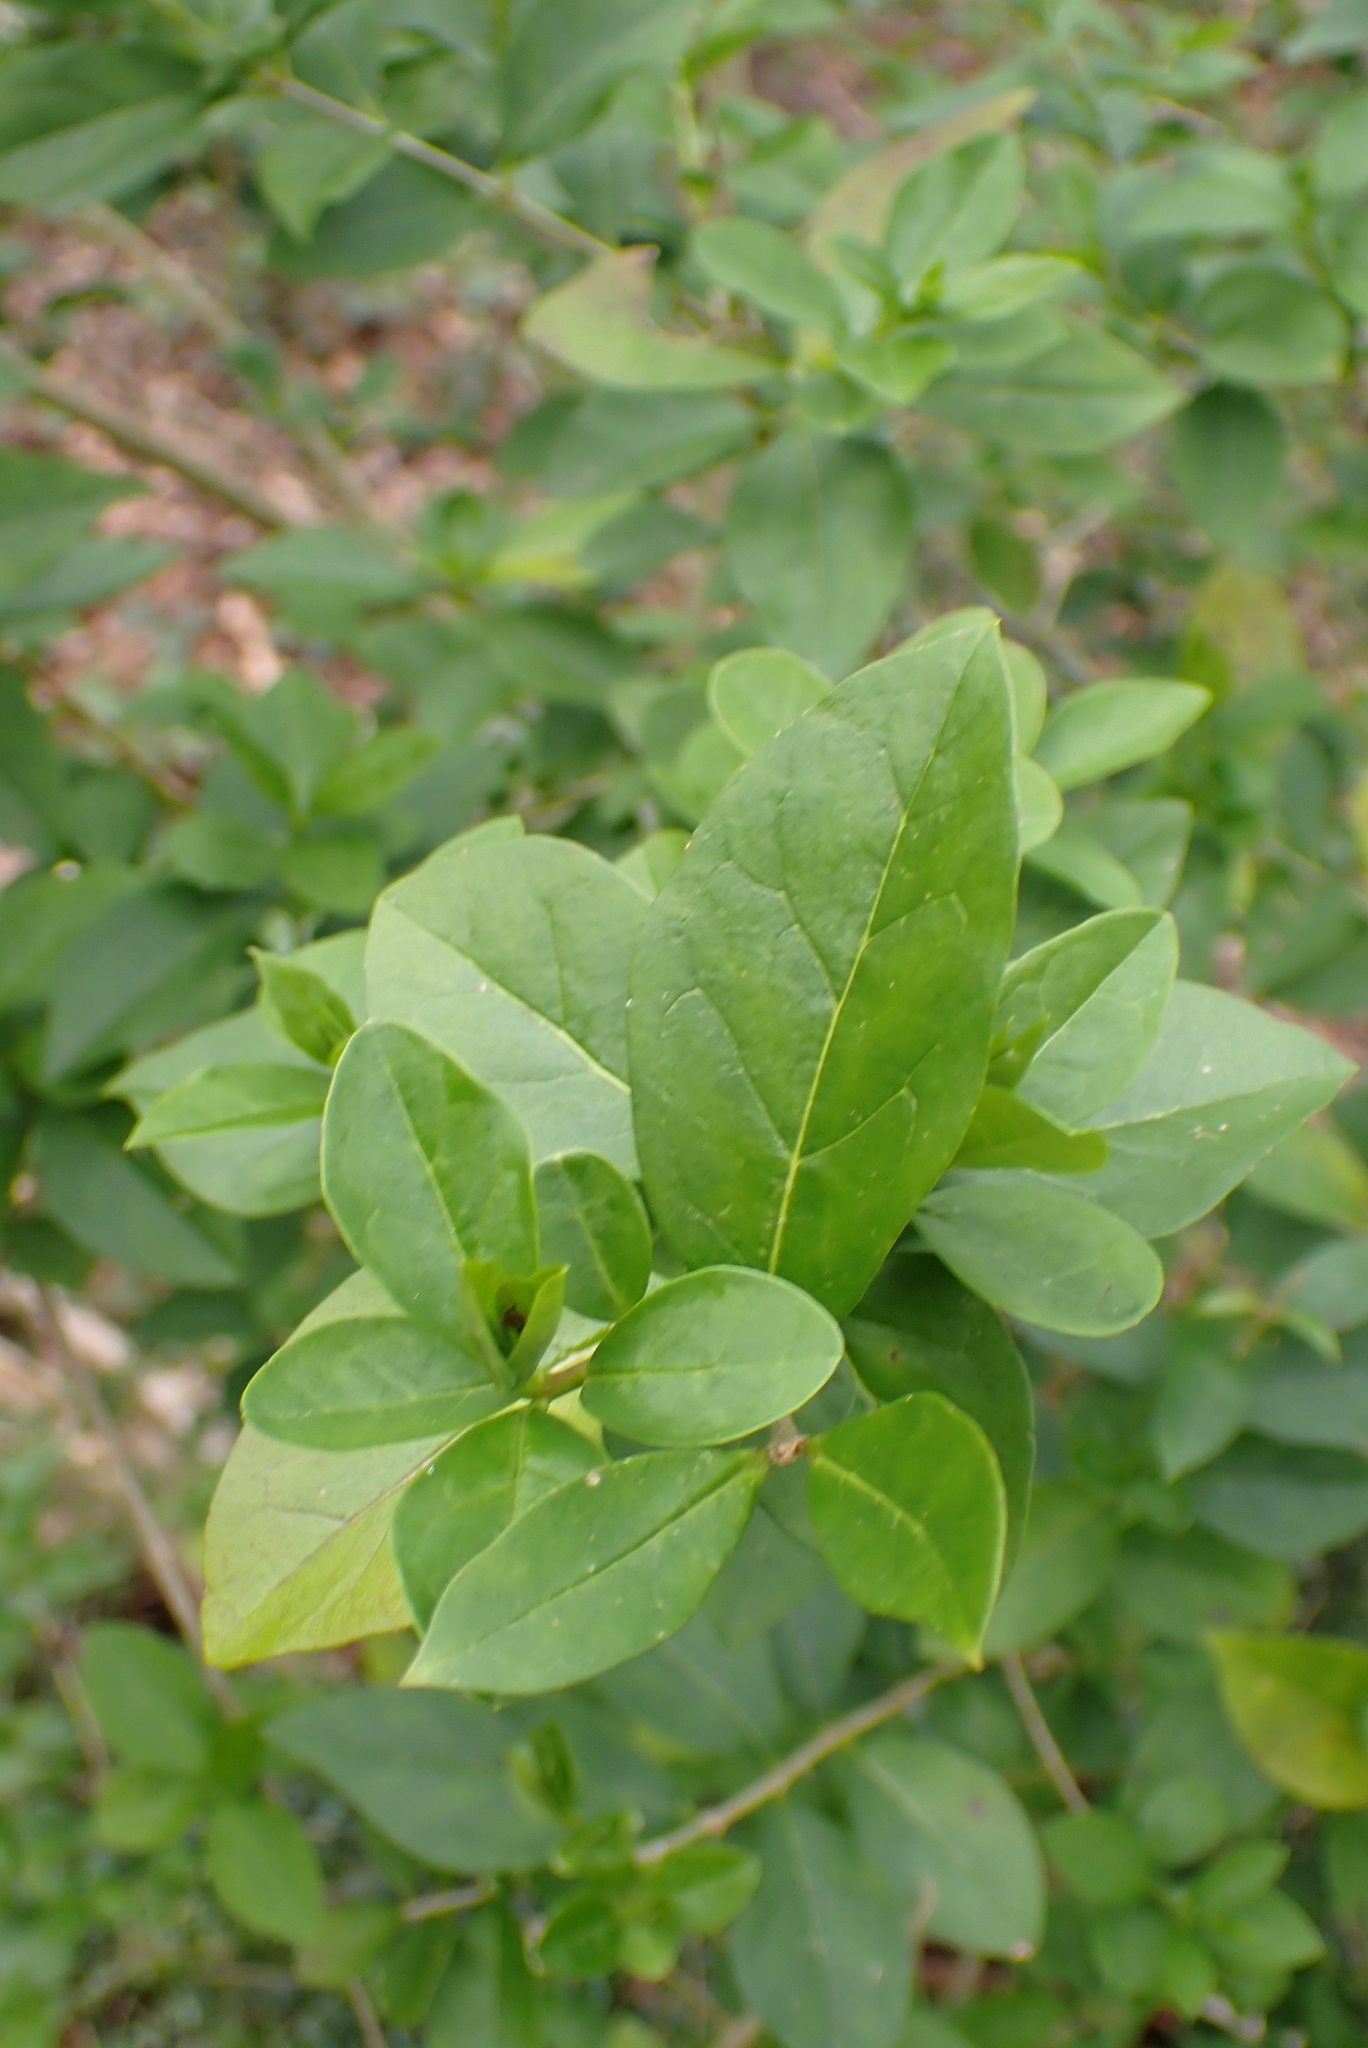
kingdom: Plantae
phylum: Tracheophyta
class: Magnoliopsida
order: Lamiales
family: Oleaceae
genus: Ligustrum
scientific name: Ligustrum ovalifolium
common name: California privet
